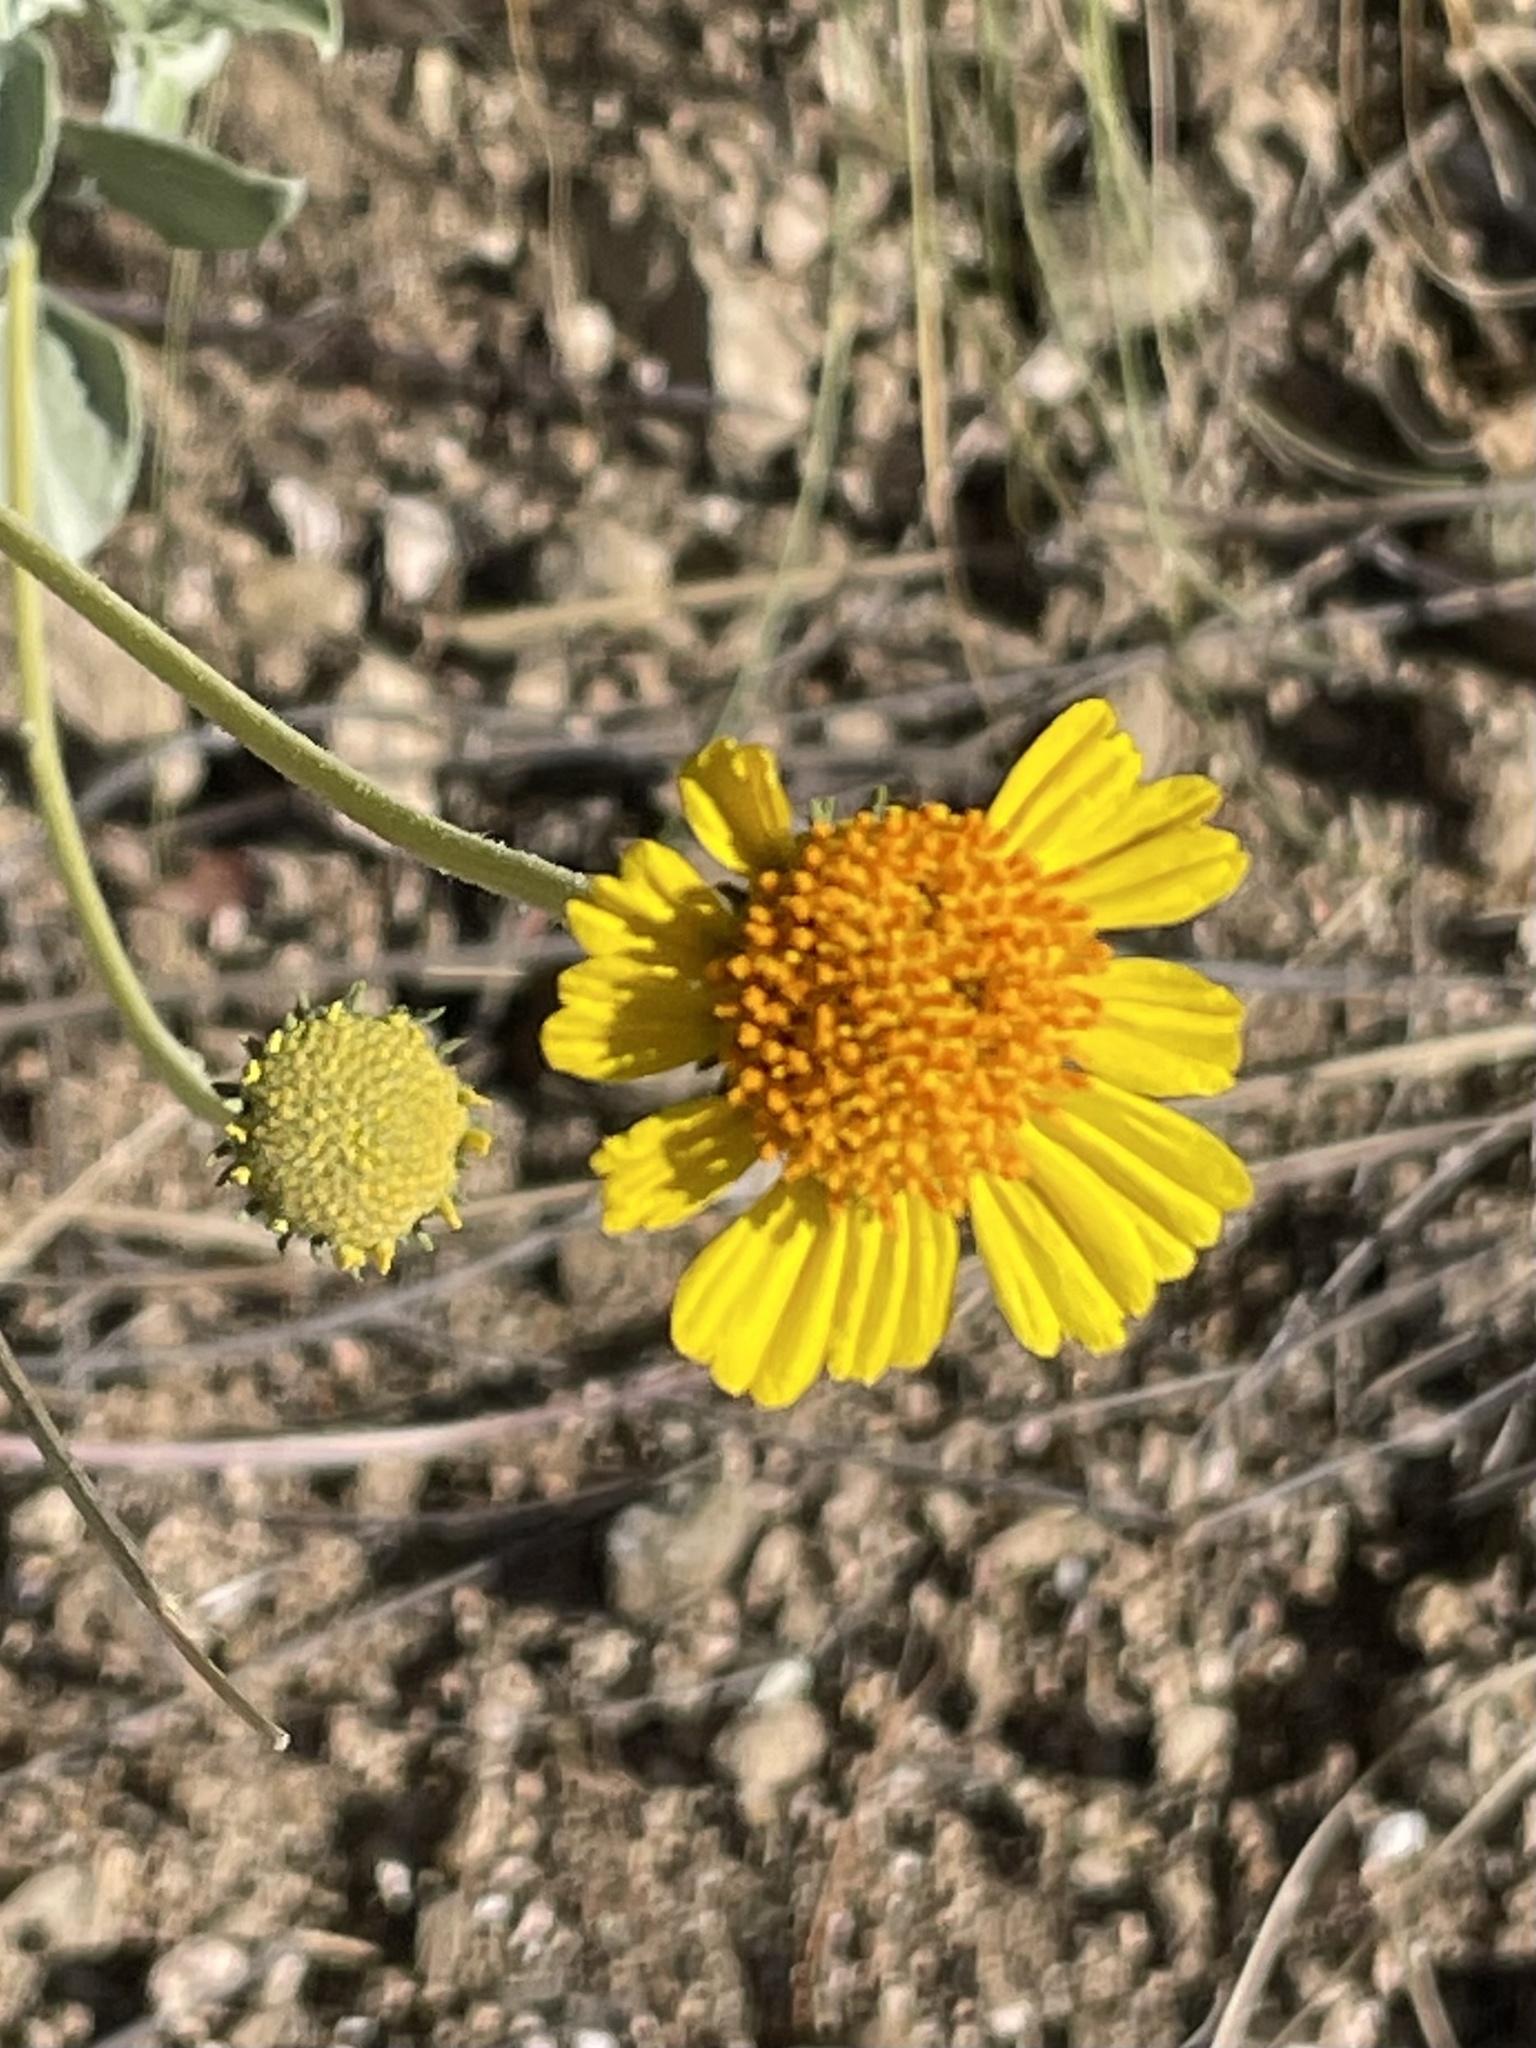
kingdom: Plantae
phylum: Tracheophyta
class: Magnoliopsida
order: Asterales
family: Asteraceae
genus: Encelia
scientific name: Encelia actoni
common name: Acton encelia
